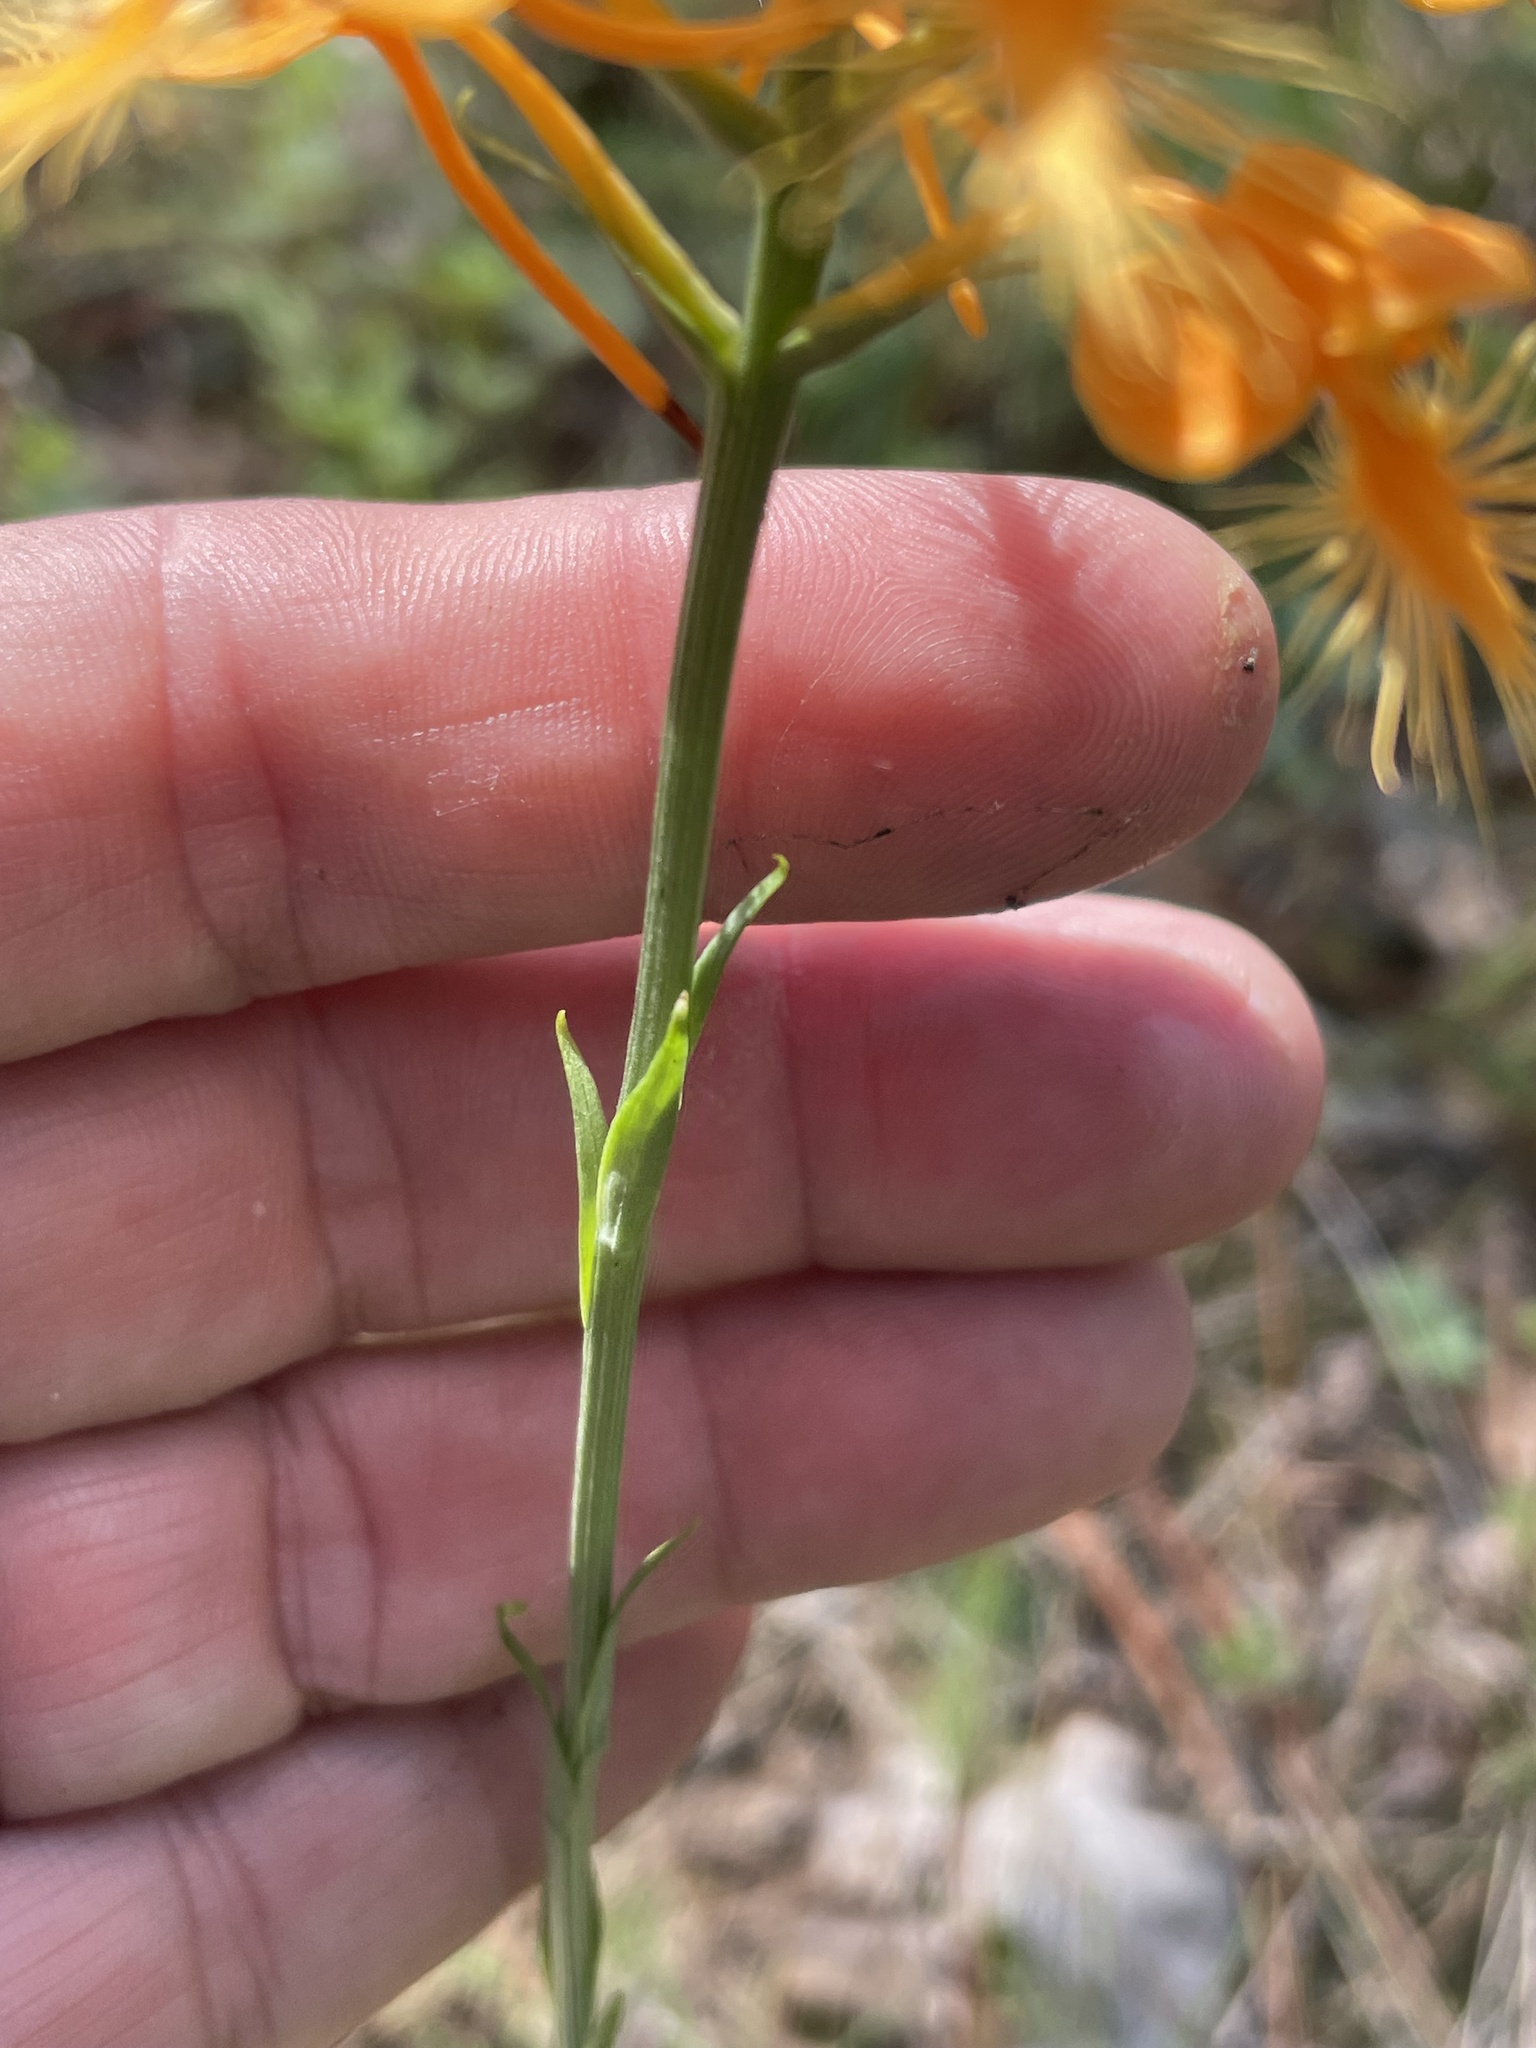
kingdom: Plantae
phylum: Tracheophyta
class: Liliopsida
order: Asparagales
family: Orchidaceae
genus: Platanthera
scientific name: Platanthera ciliaris
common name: Yellow fringed orchid
